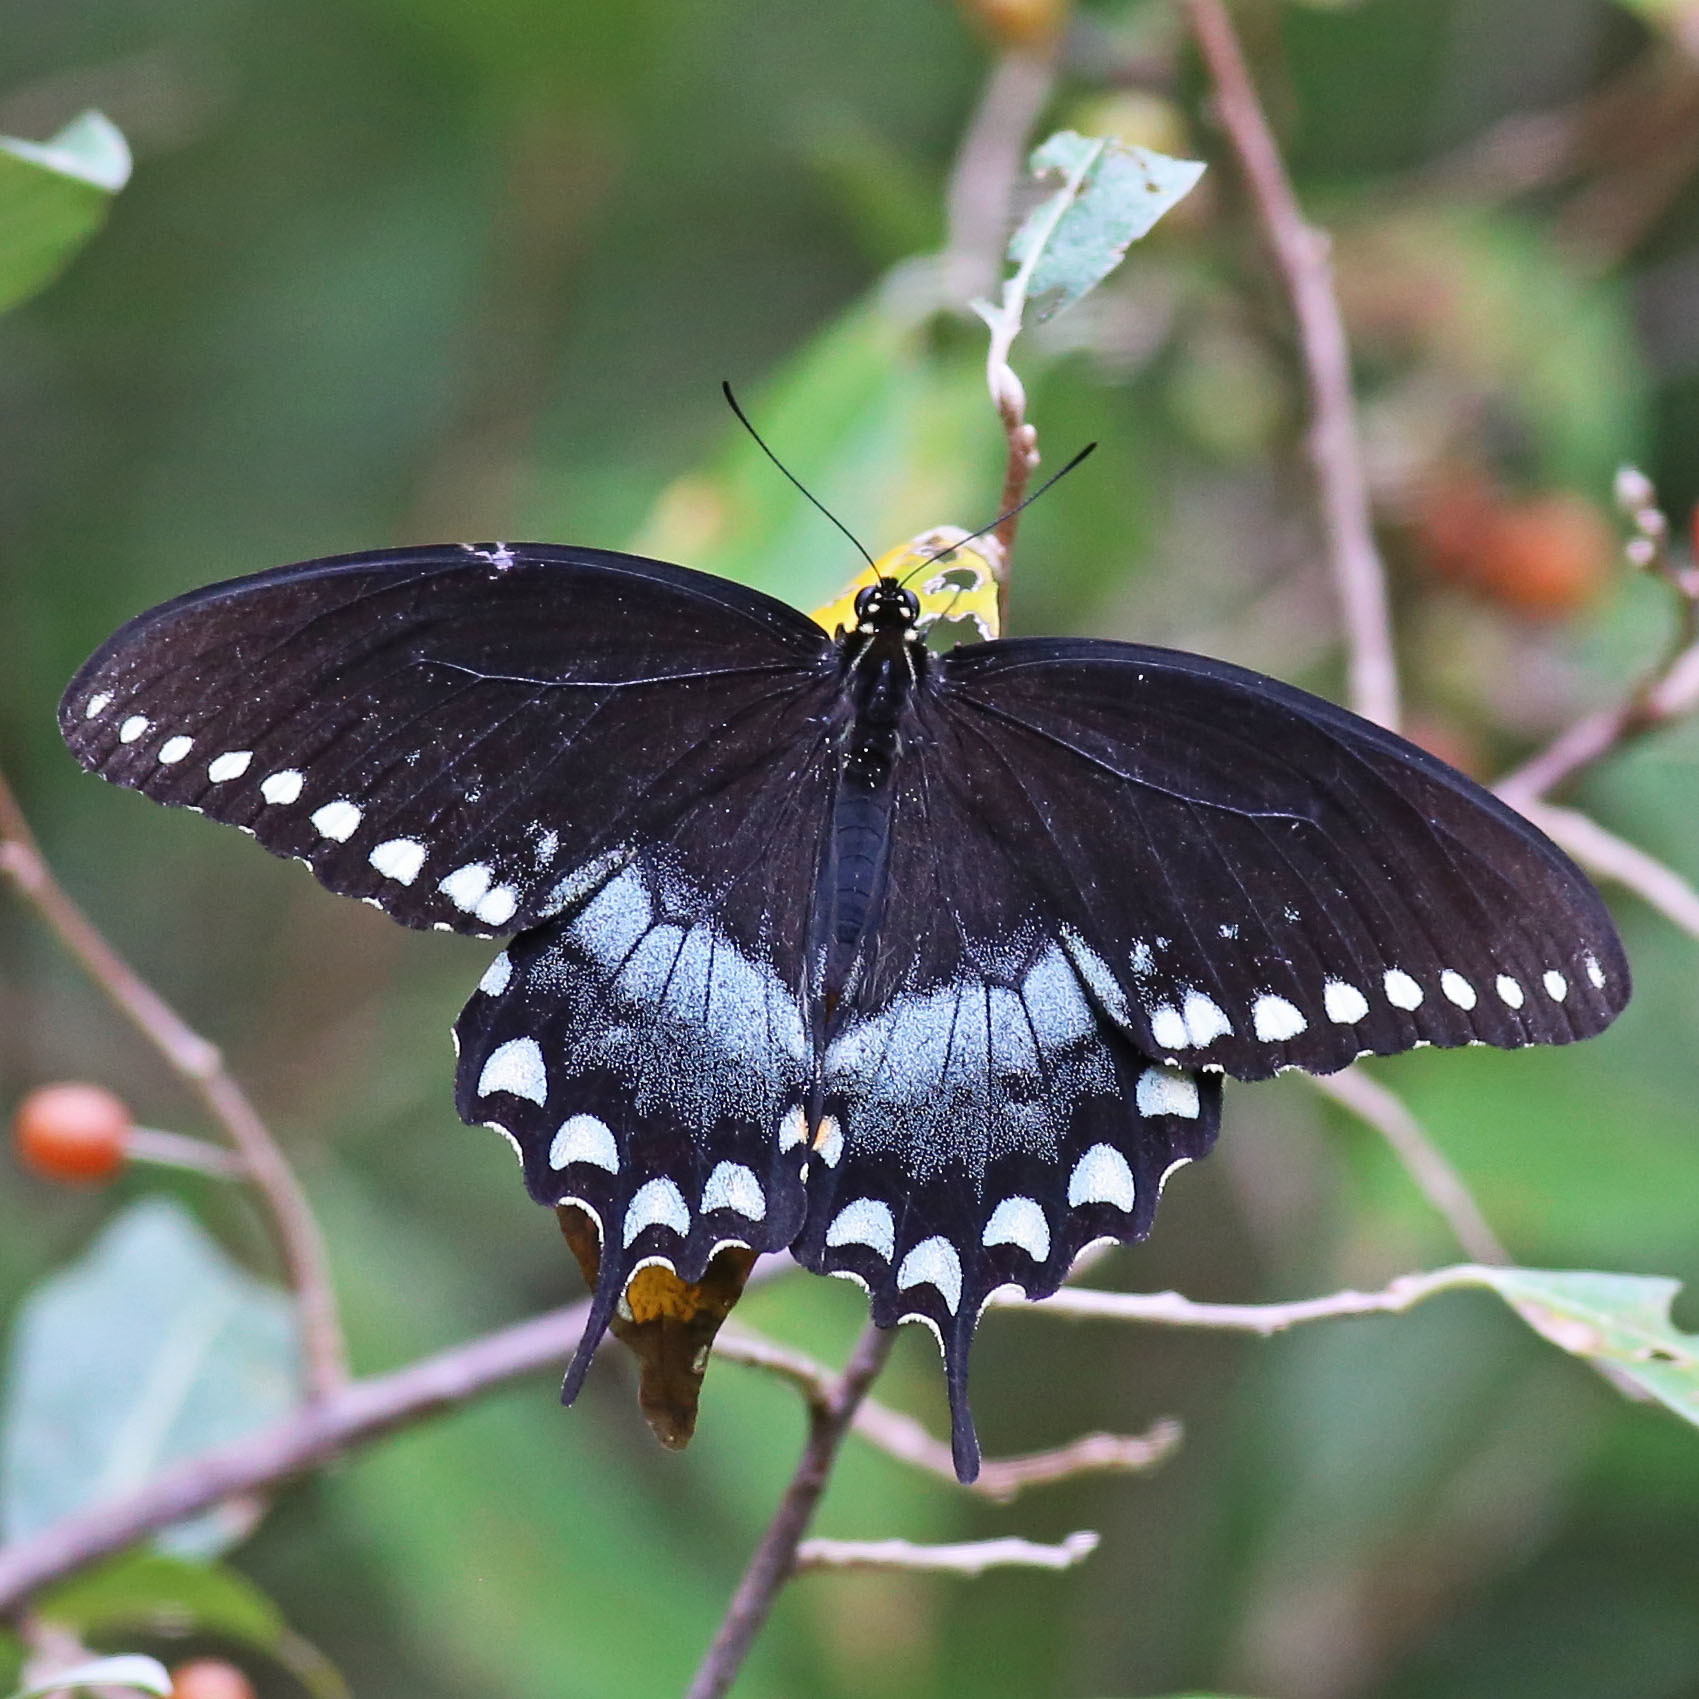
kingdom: Animalia
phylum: Arthropoda
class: Insecta
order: Lepidoptera
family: Papilionidae
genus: Papilio
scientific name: Papilio troilus
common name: Spicebush swallowtail
